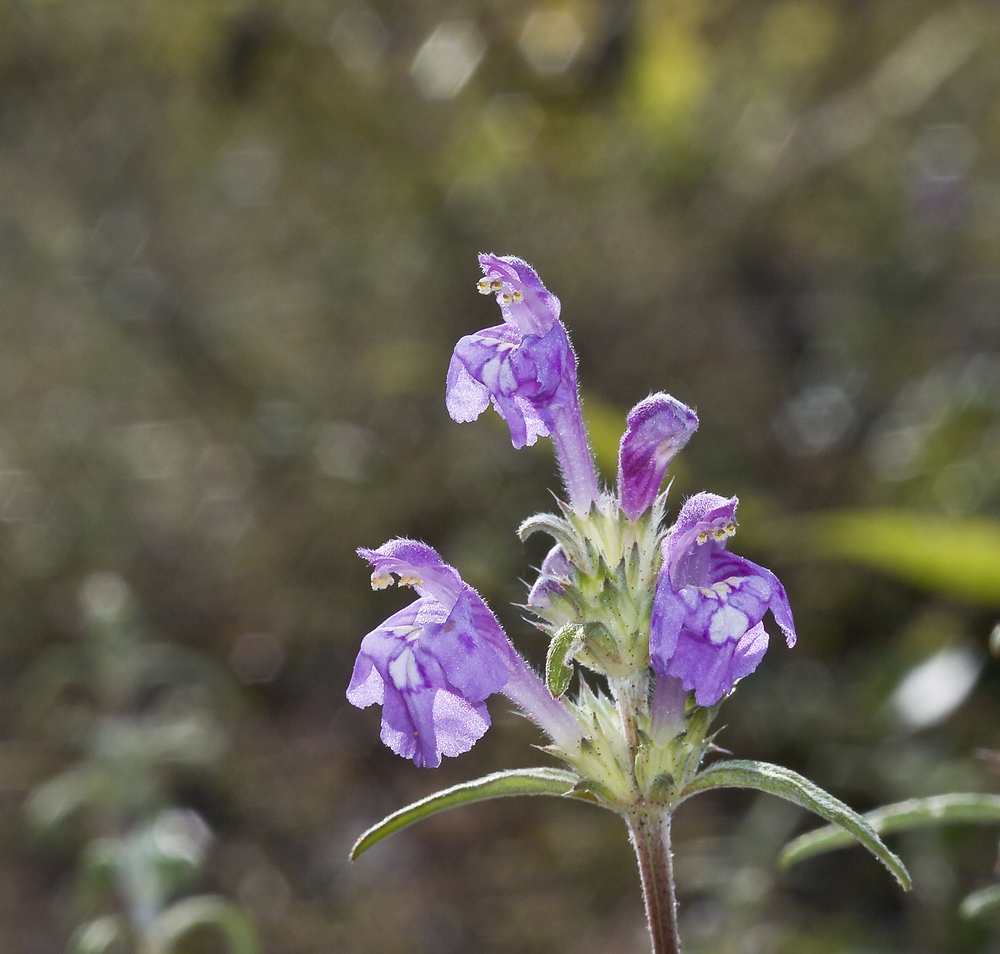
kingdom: Plantae
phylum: Tracheophyta
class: Magnoliopsida
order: Lamiales
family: Lamiaceae
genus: Galeopsis
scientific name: Galeopsis angustifolia
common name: Red hemp-nettle
